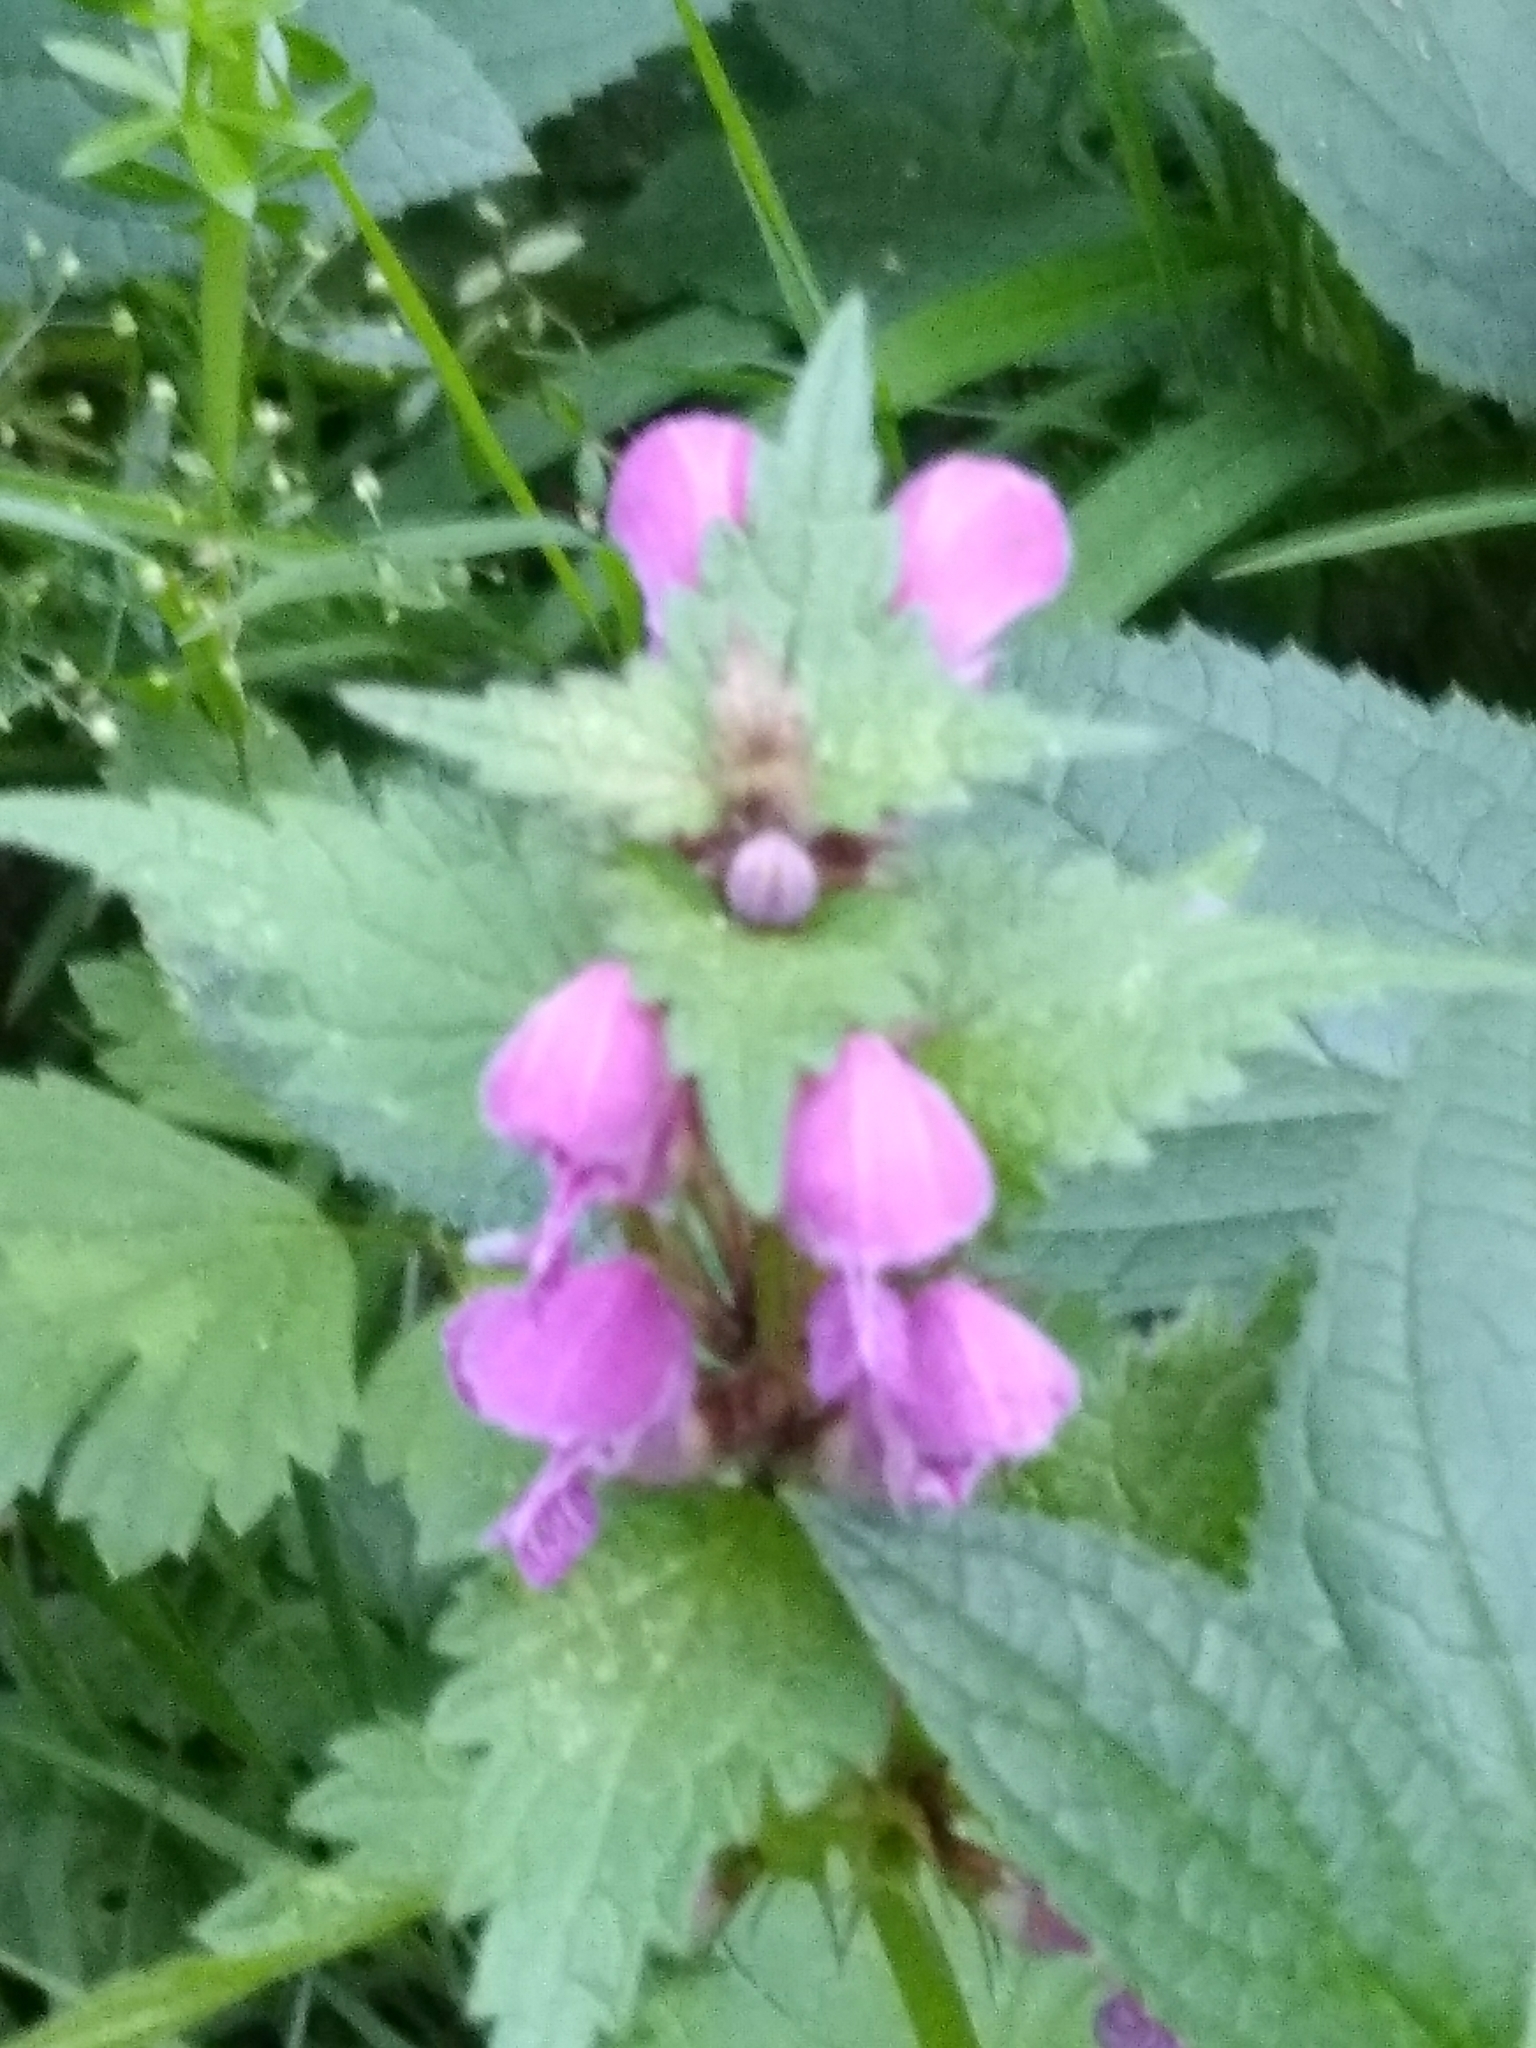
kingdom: Plantae
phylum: Tracheophyta
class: Magnoliopsida
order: Lamiales
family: Lamiaceae
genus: Lamium
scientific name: Lamium maculatum
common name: Spotted dead-nettle
